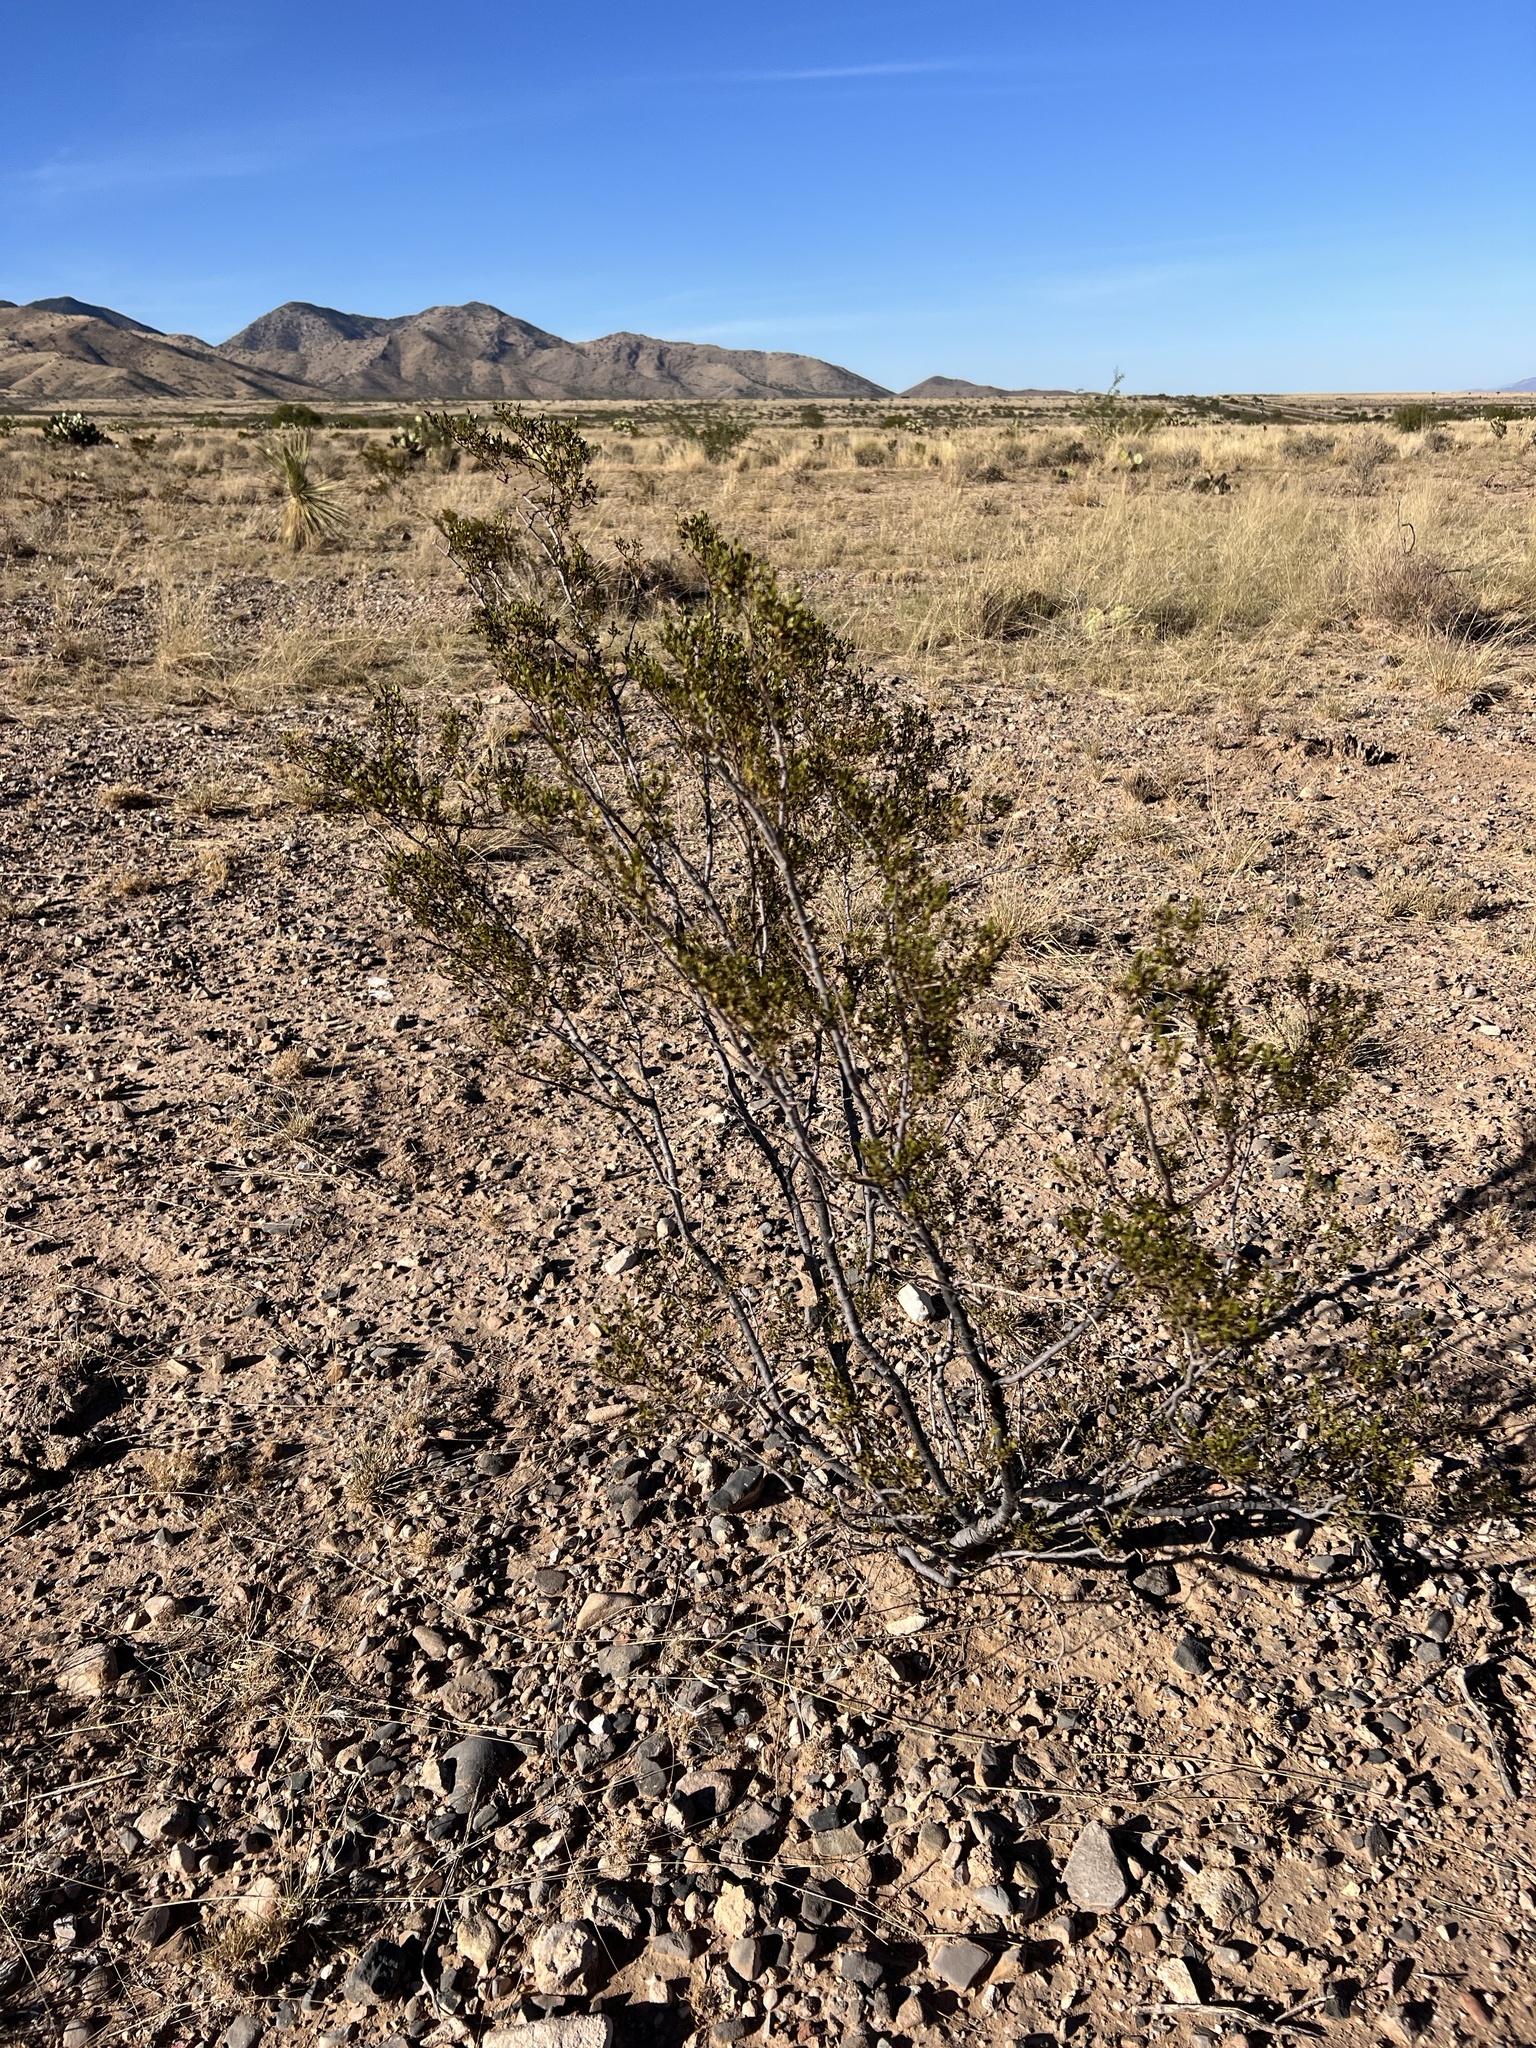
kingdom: Plantae
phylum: Tracheophyta
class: Magnoliopsida
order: Zygophyllales
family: Zygophyllaceae
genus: Larrea
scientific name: Larrea tridentata
